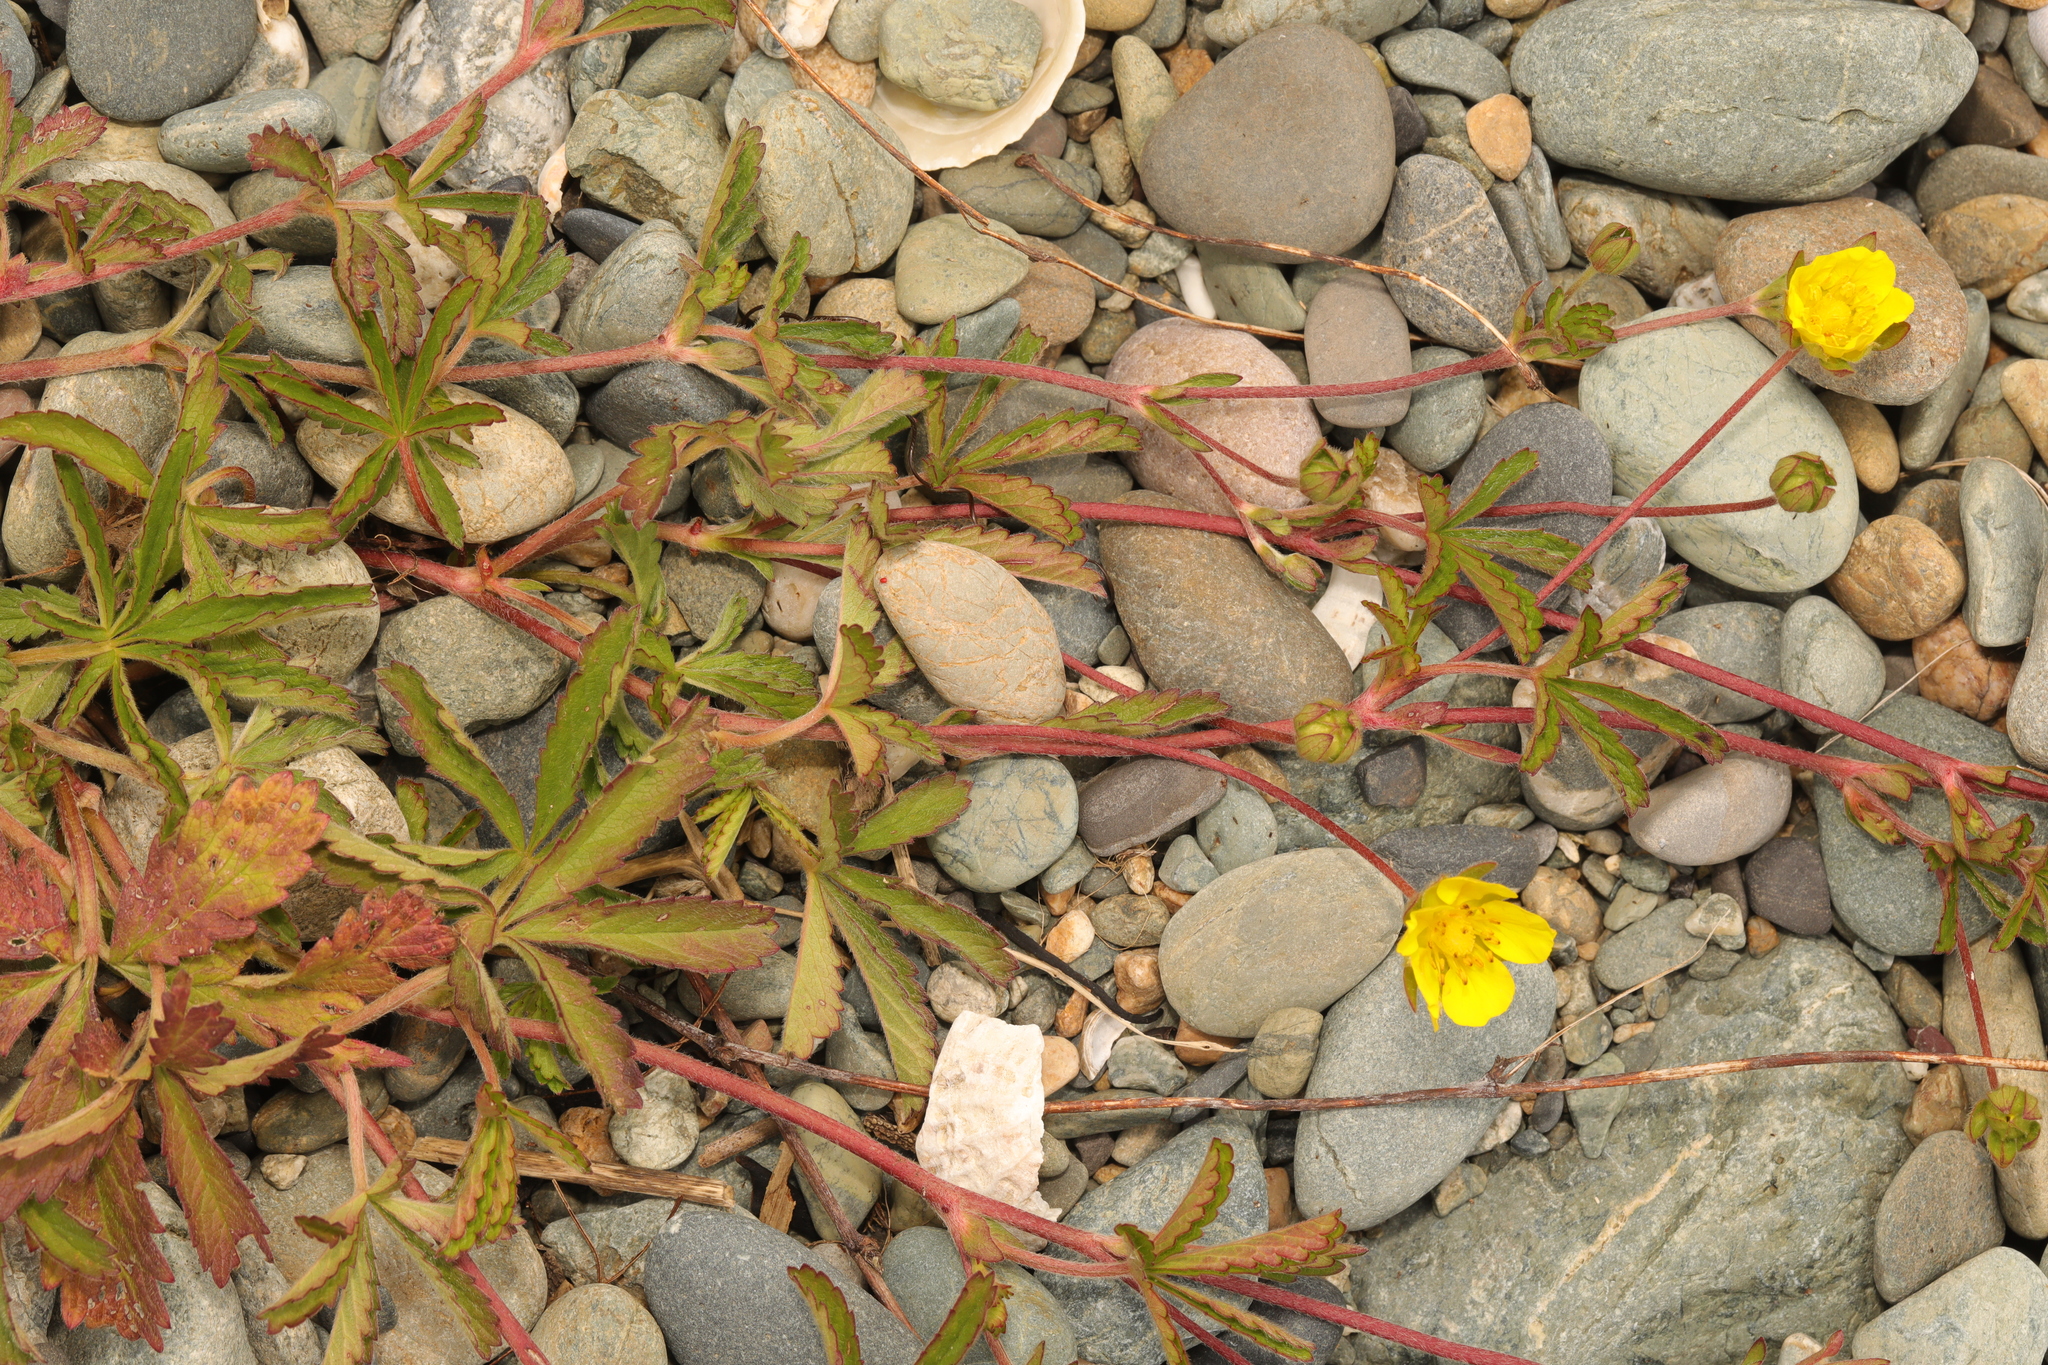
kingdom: Plantae
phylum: Tracheophyta
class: Magnoliopsida
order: Rosales
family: Rosaceae
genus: Potentilla
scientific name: Potentilla reptans
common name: Creeping cinquefoil
